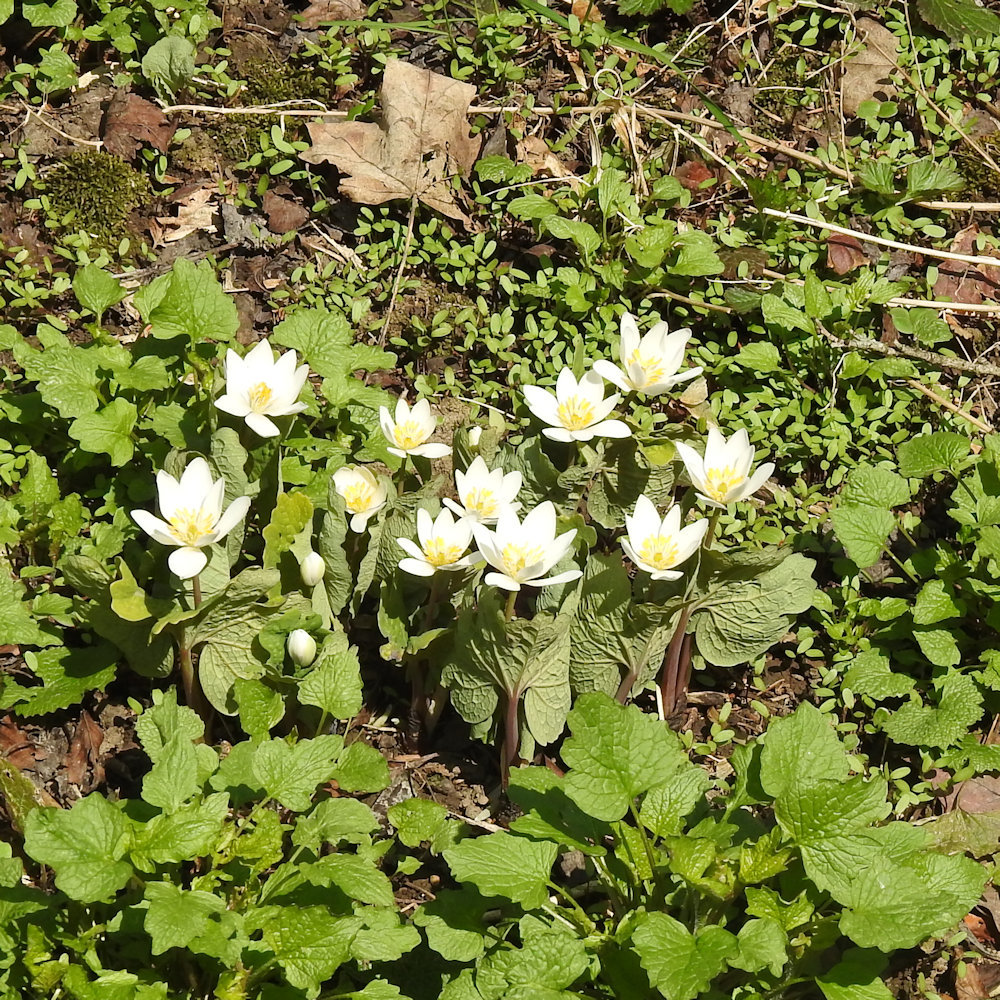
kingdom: Plantae
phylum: Tracheophyta
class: Magnoliopsida
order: Ranunculales
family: Papaveraceae
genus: Sanguinaria
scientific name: Sanguinaria canadensis
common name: Bloodroot
